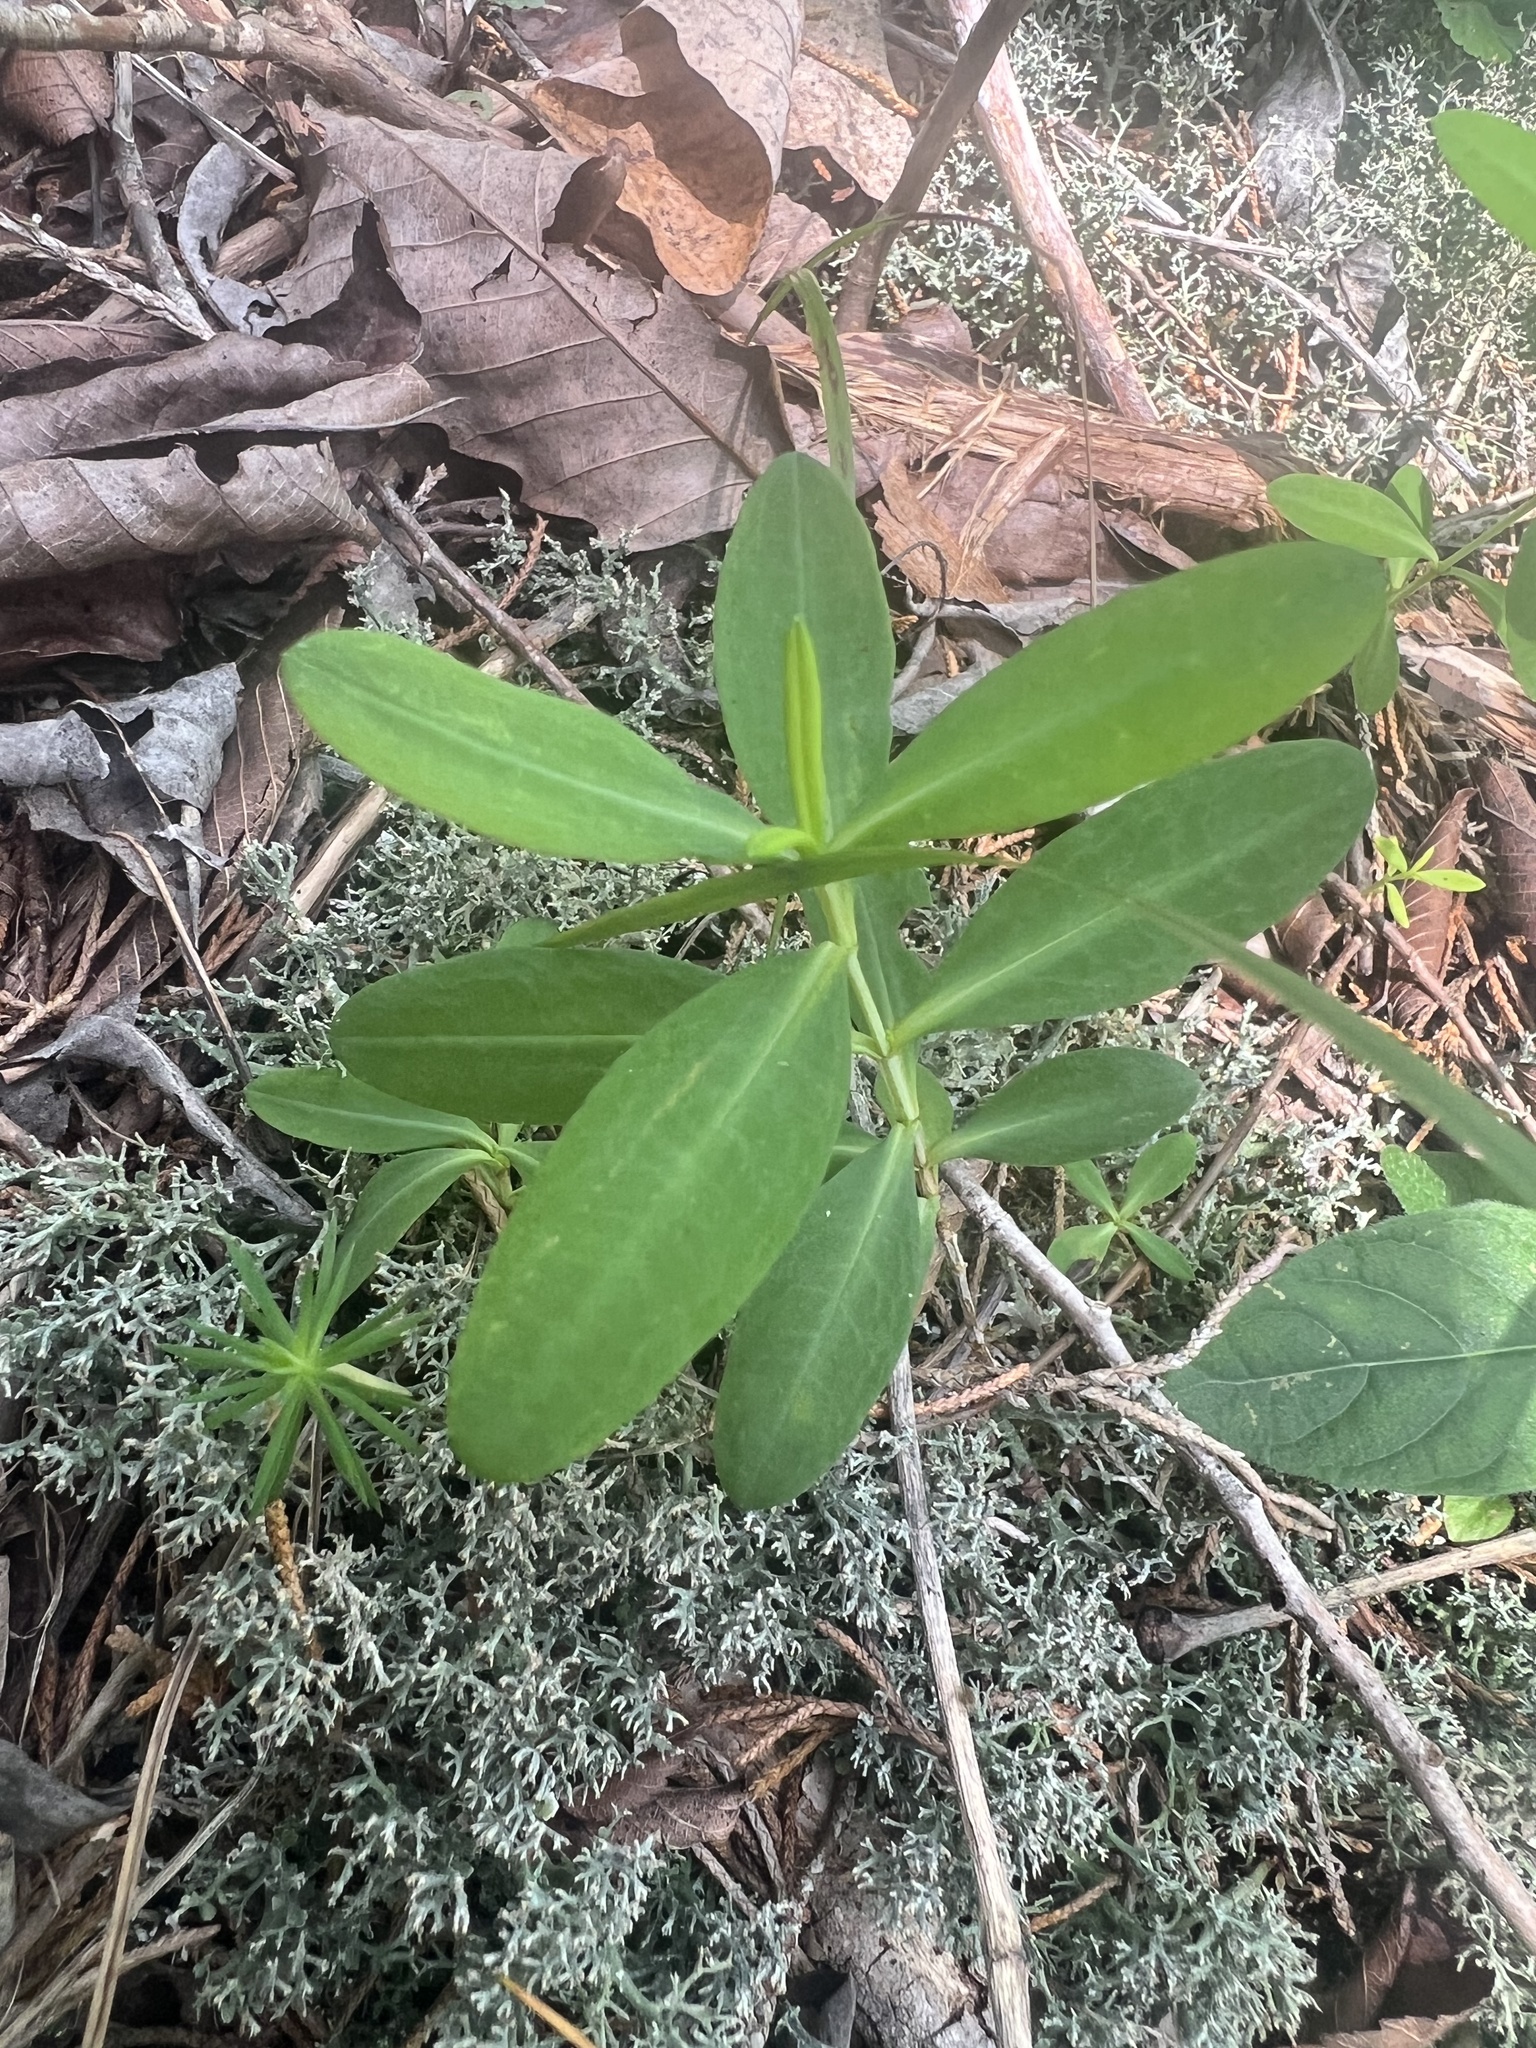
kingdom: Plantae
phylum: Tracheophyta
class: Magnoliopsida
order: Malpighiales
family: Hypericaceae
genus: Hypericum
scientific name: Hypericum frondosum
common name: Golden st. john's-wort
